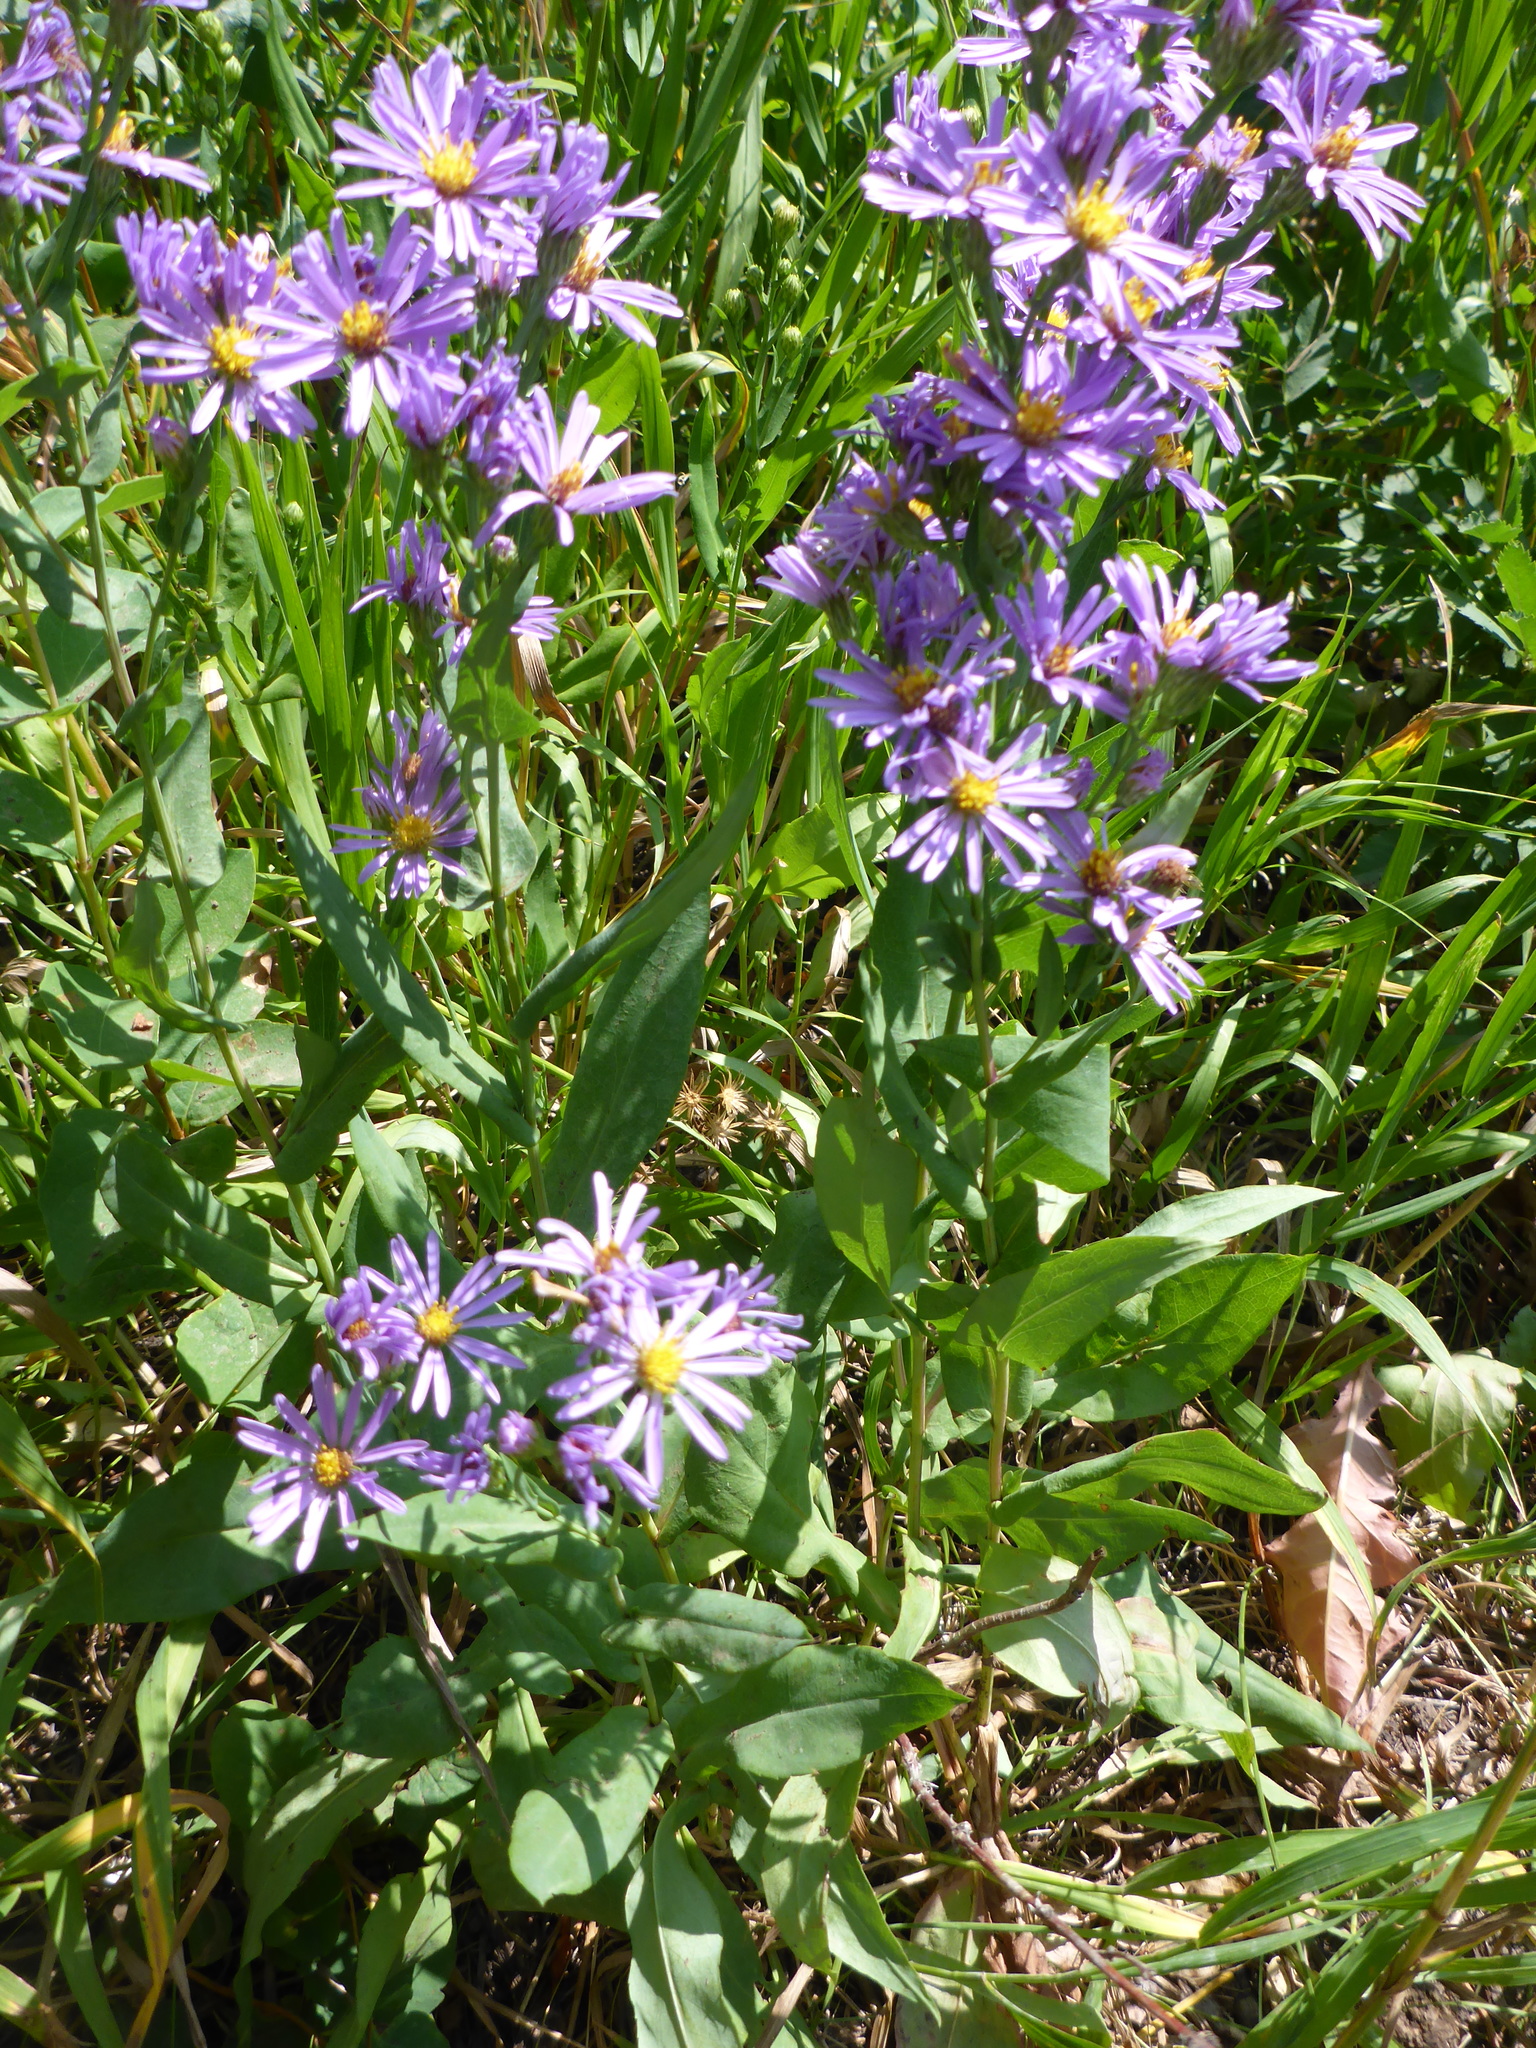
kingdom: Plantae
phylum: Tracheophyta
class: Magnoliopsida
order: Asterales
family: Asteraceae
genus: Symphyotrichum
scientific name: Symphyotrichum laeve
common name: Glaucous aster
